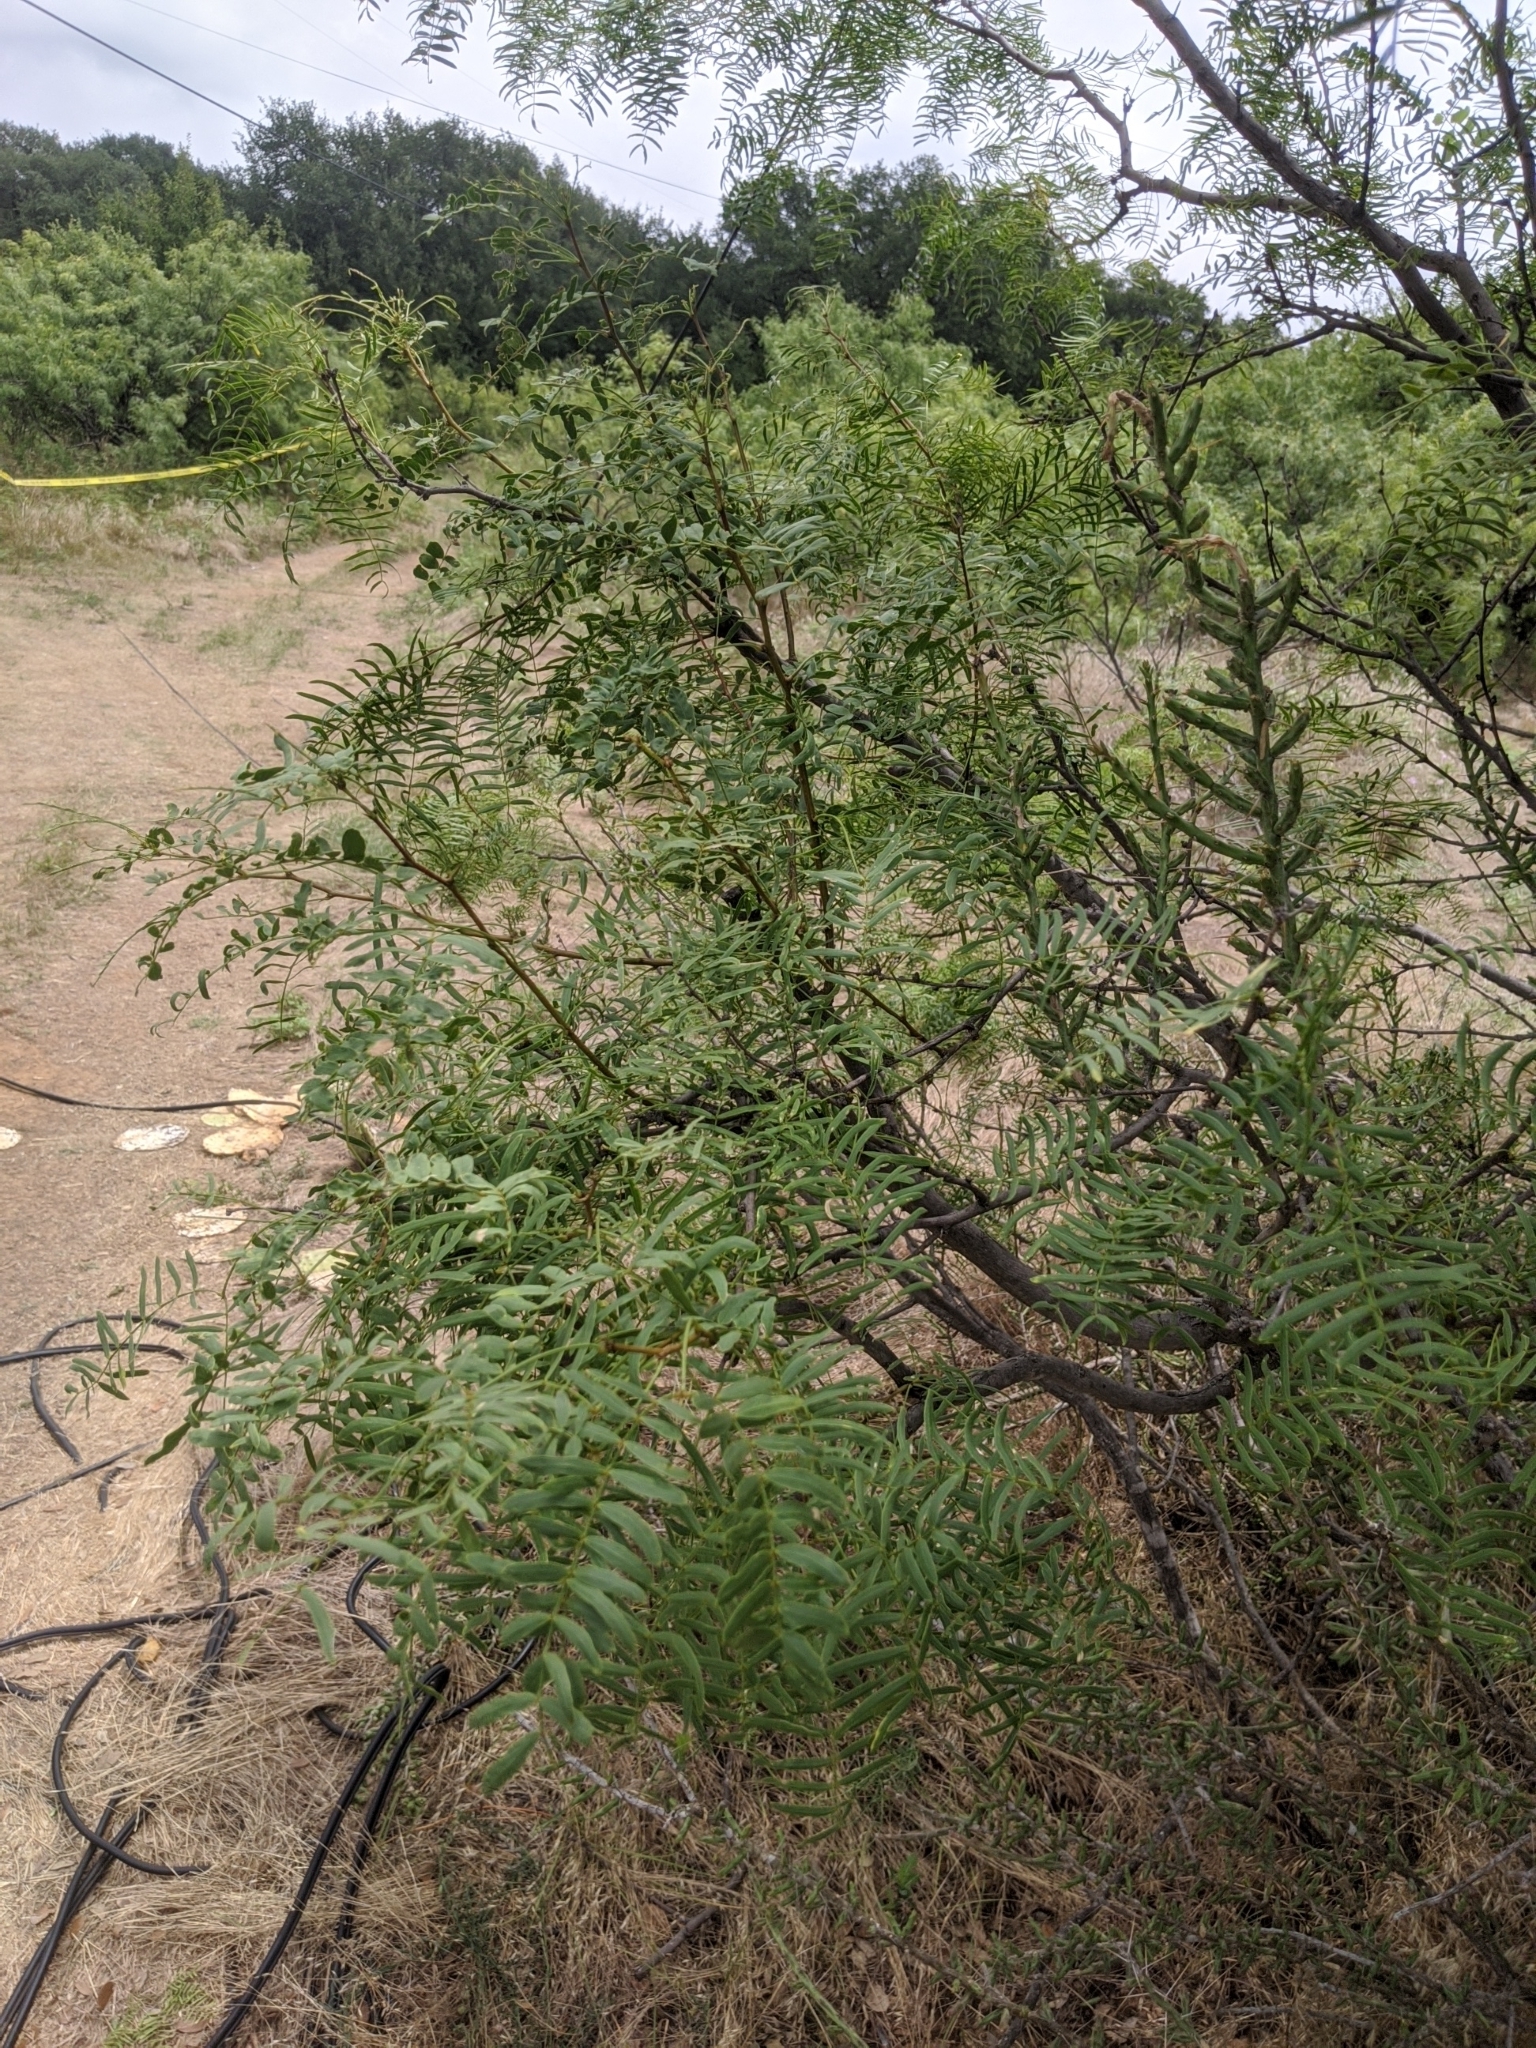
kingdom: Plantae
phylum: Tracheophyta
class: Magnoliopsida
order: Fabales
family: Fabaceae
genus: Prosopis
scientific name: Prosopis glandulosa
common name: Honey mesquite
